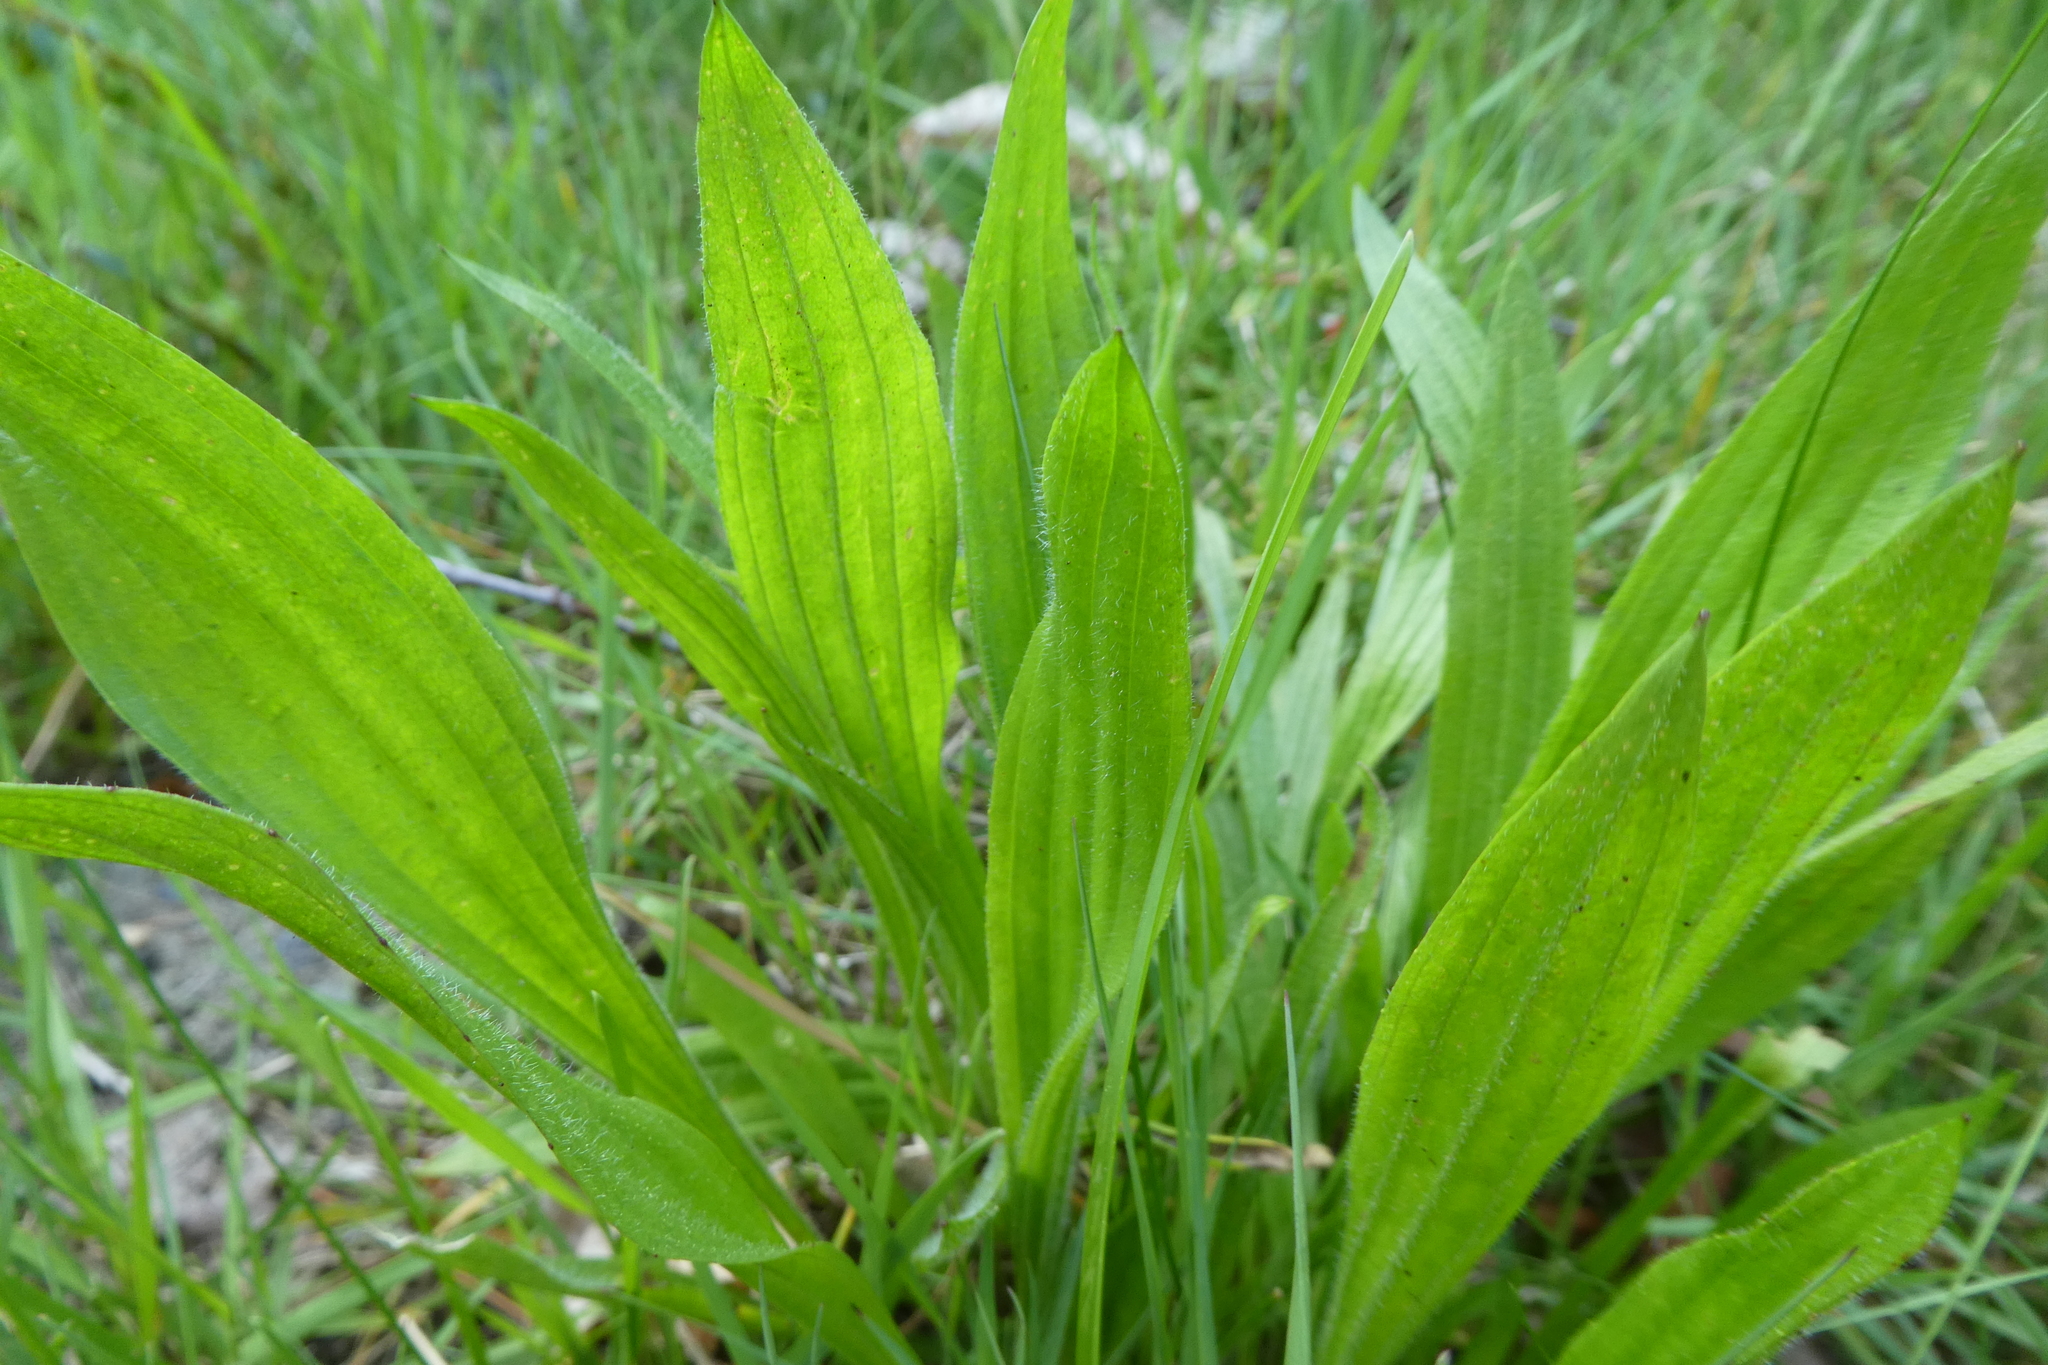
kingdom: Plantae
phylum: Tracheophyta
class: Magnoliopsida
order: Lamiales
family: Plantaginaceae
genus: Plantago
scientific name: Plantago lanceolata
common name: Ribwort plantain
